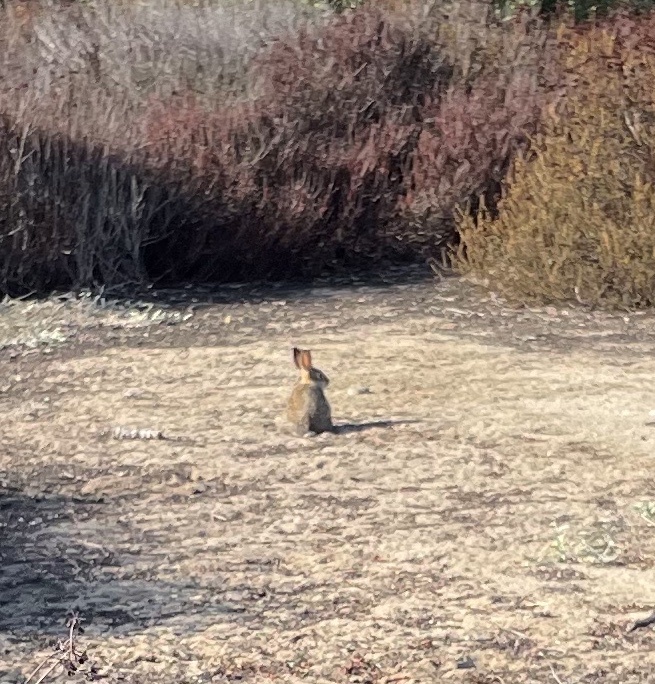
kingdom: Animalia
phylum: Chordata
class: Mammalia
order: Lagomorpha
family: Leporidae
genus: Sylvilagus
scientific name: Sylvilagus audubonii
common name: Desert cottontail
